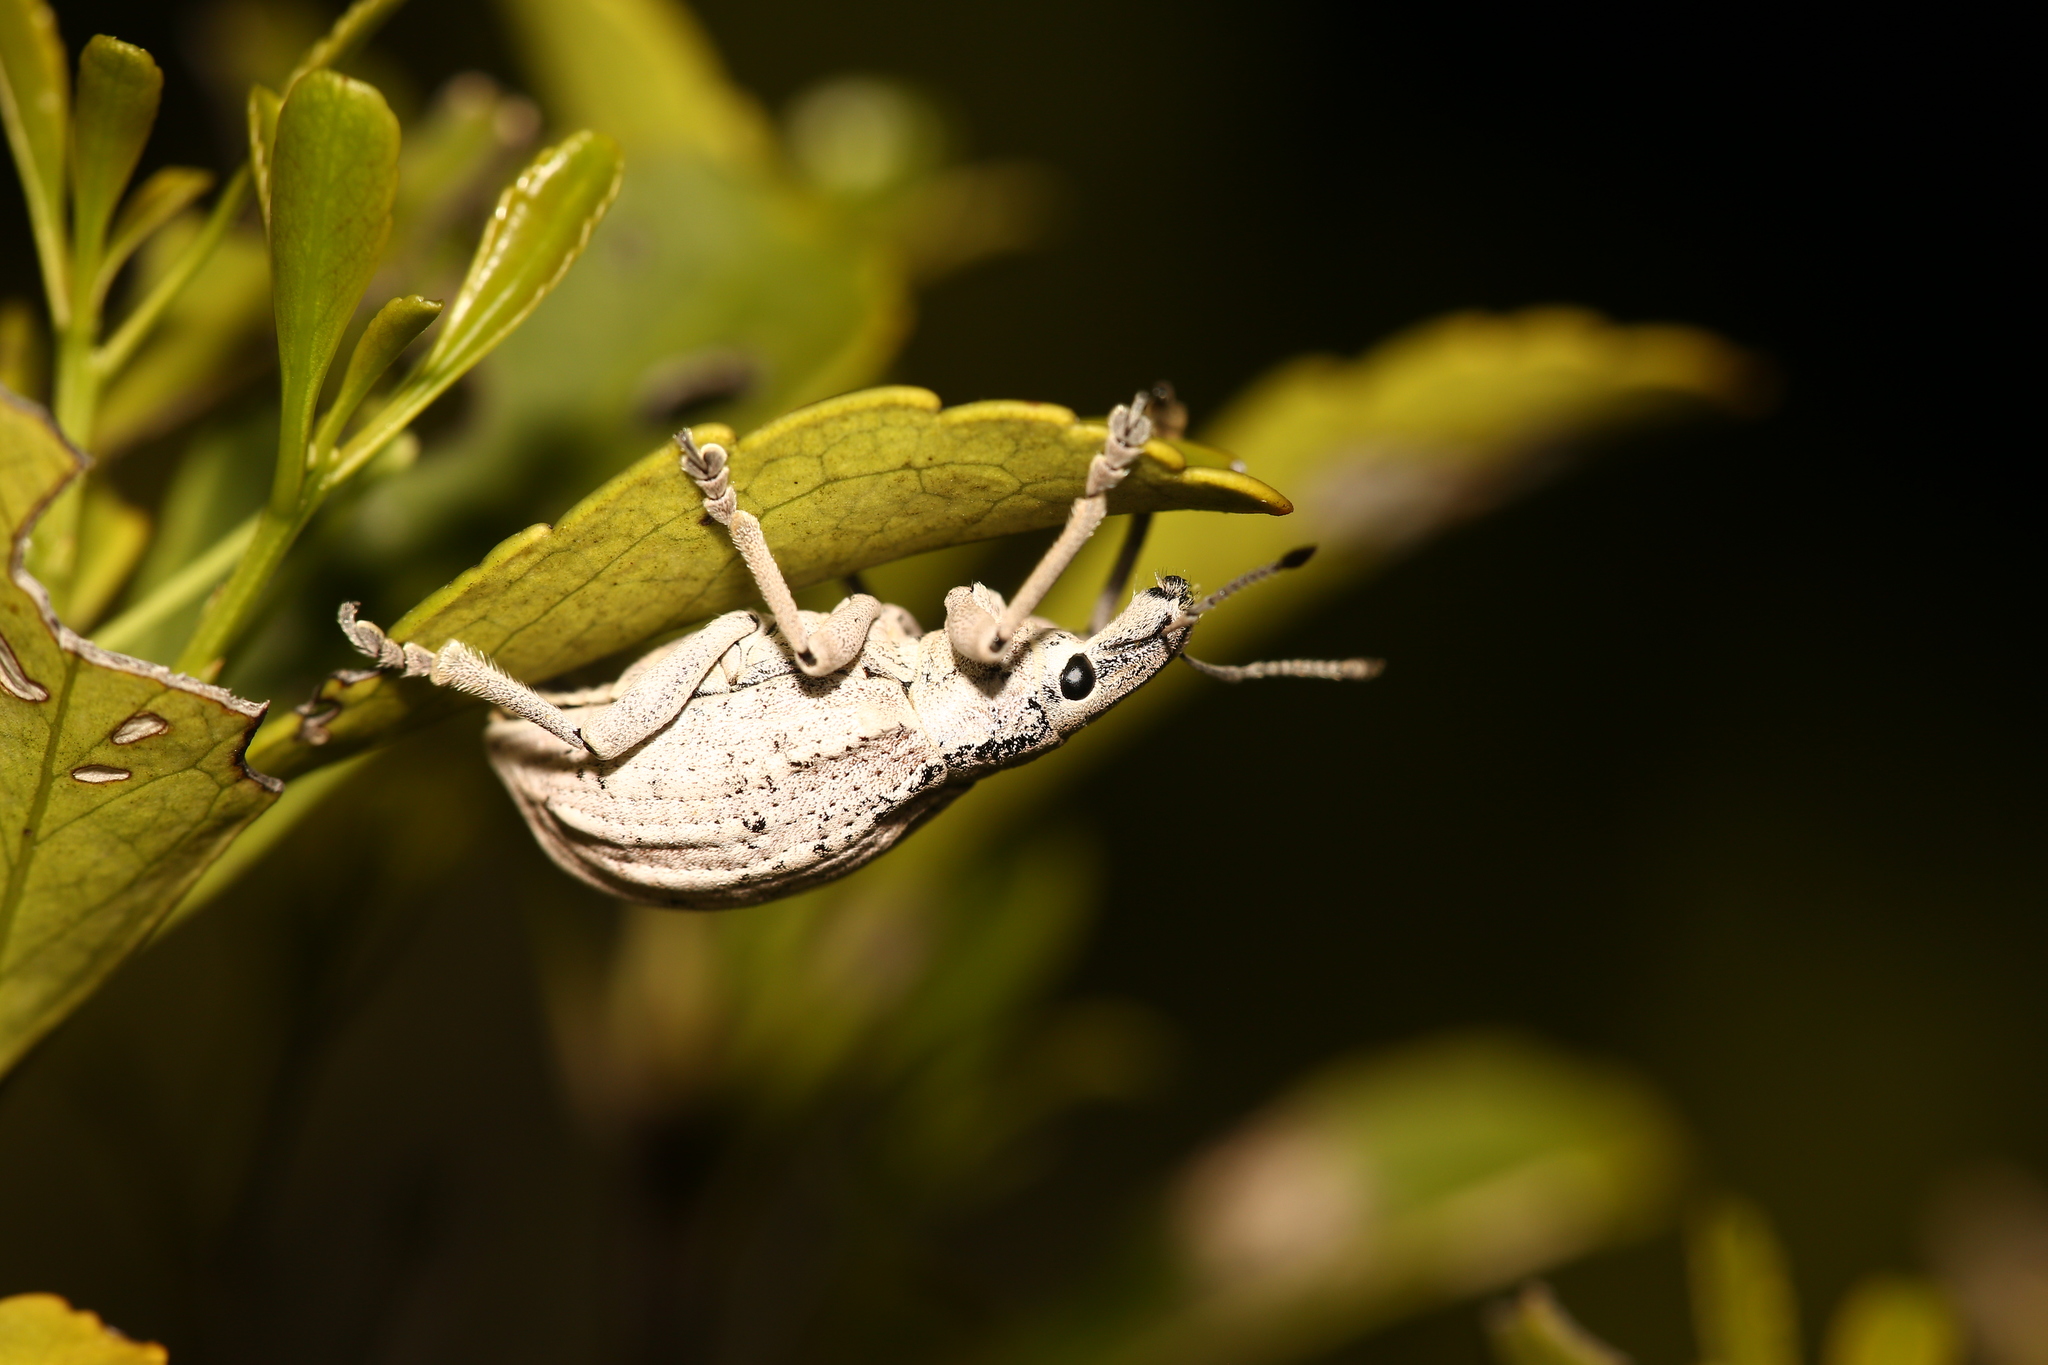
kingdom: Animalia
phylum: Arthropoda
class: Insecta
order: Coleoptera
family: Curculionidae
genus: Elytrocallus
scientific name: Elytrocallus montrouzieri
